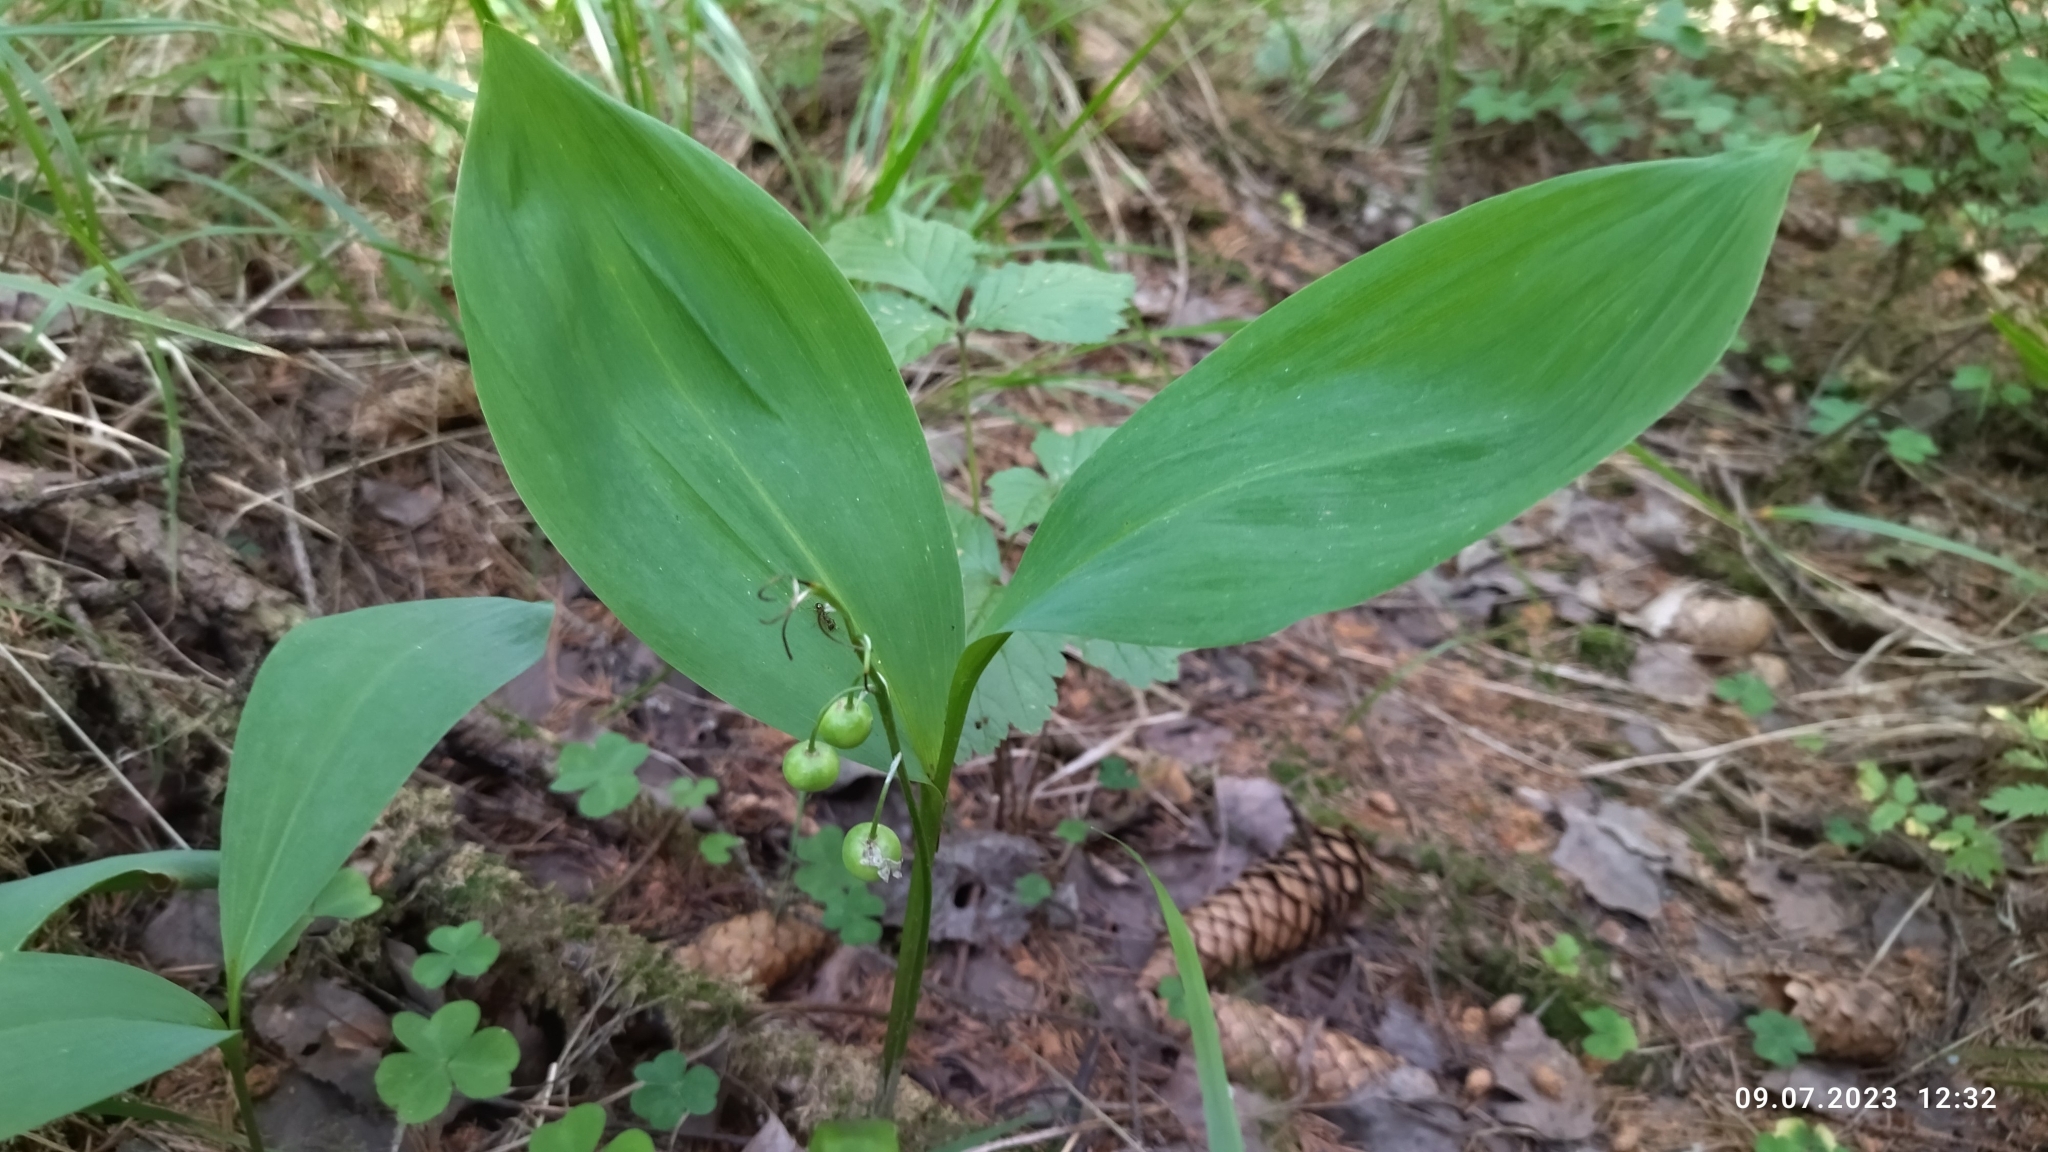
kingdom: Plantae
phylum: Tracheophyta
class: Liliopsida
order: Asparagales
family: Asparagaceae
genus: Convallaria
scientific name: Convallaria majalis
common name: Lily-of-the-valley
